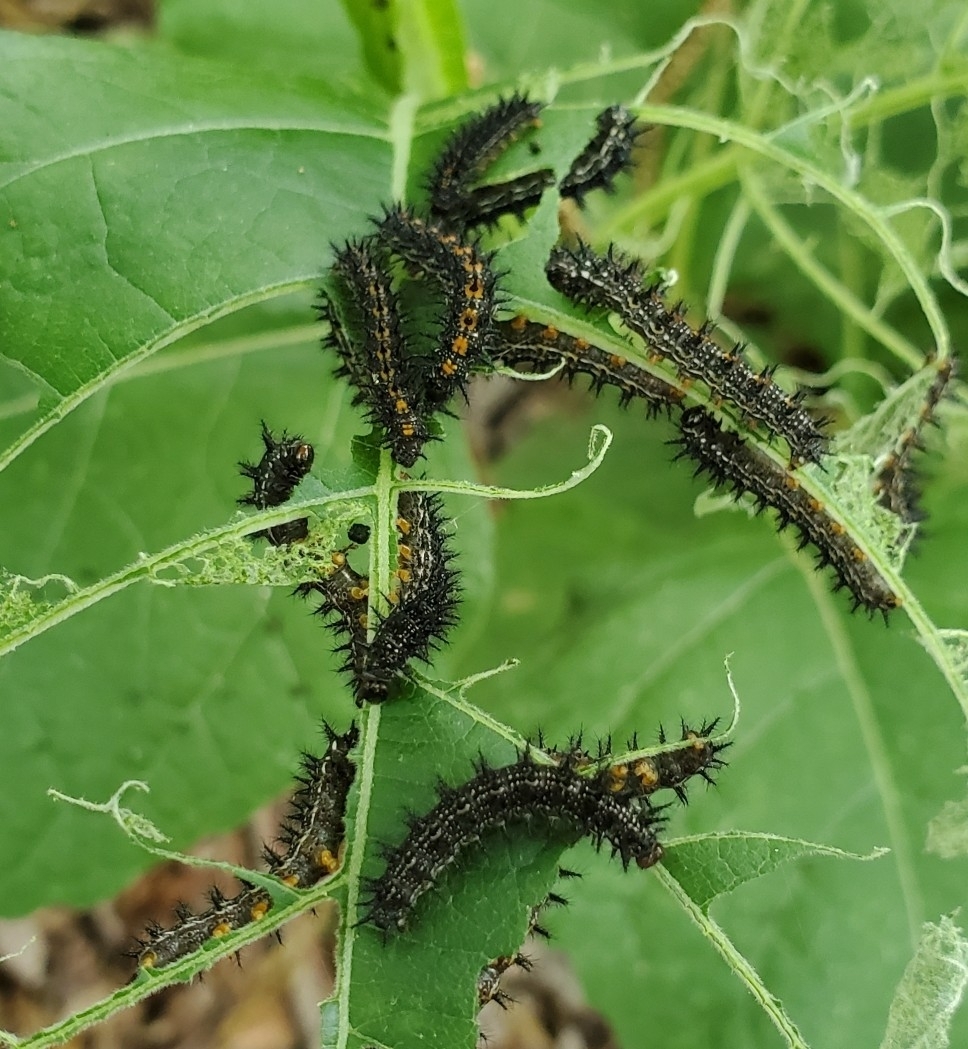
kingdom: Animalia
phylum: Arthropoda
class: Insecta
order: Lepidoptera
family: Nymphalidae
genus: Chlosyne
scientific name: Chlosyne lacinia
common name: Bordered patch
